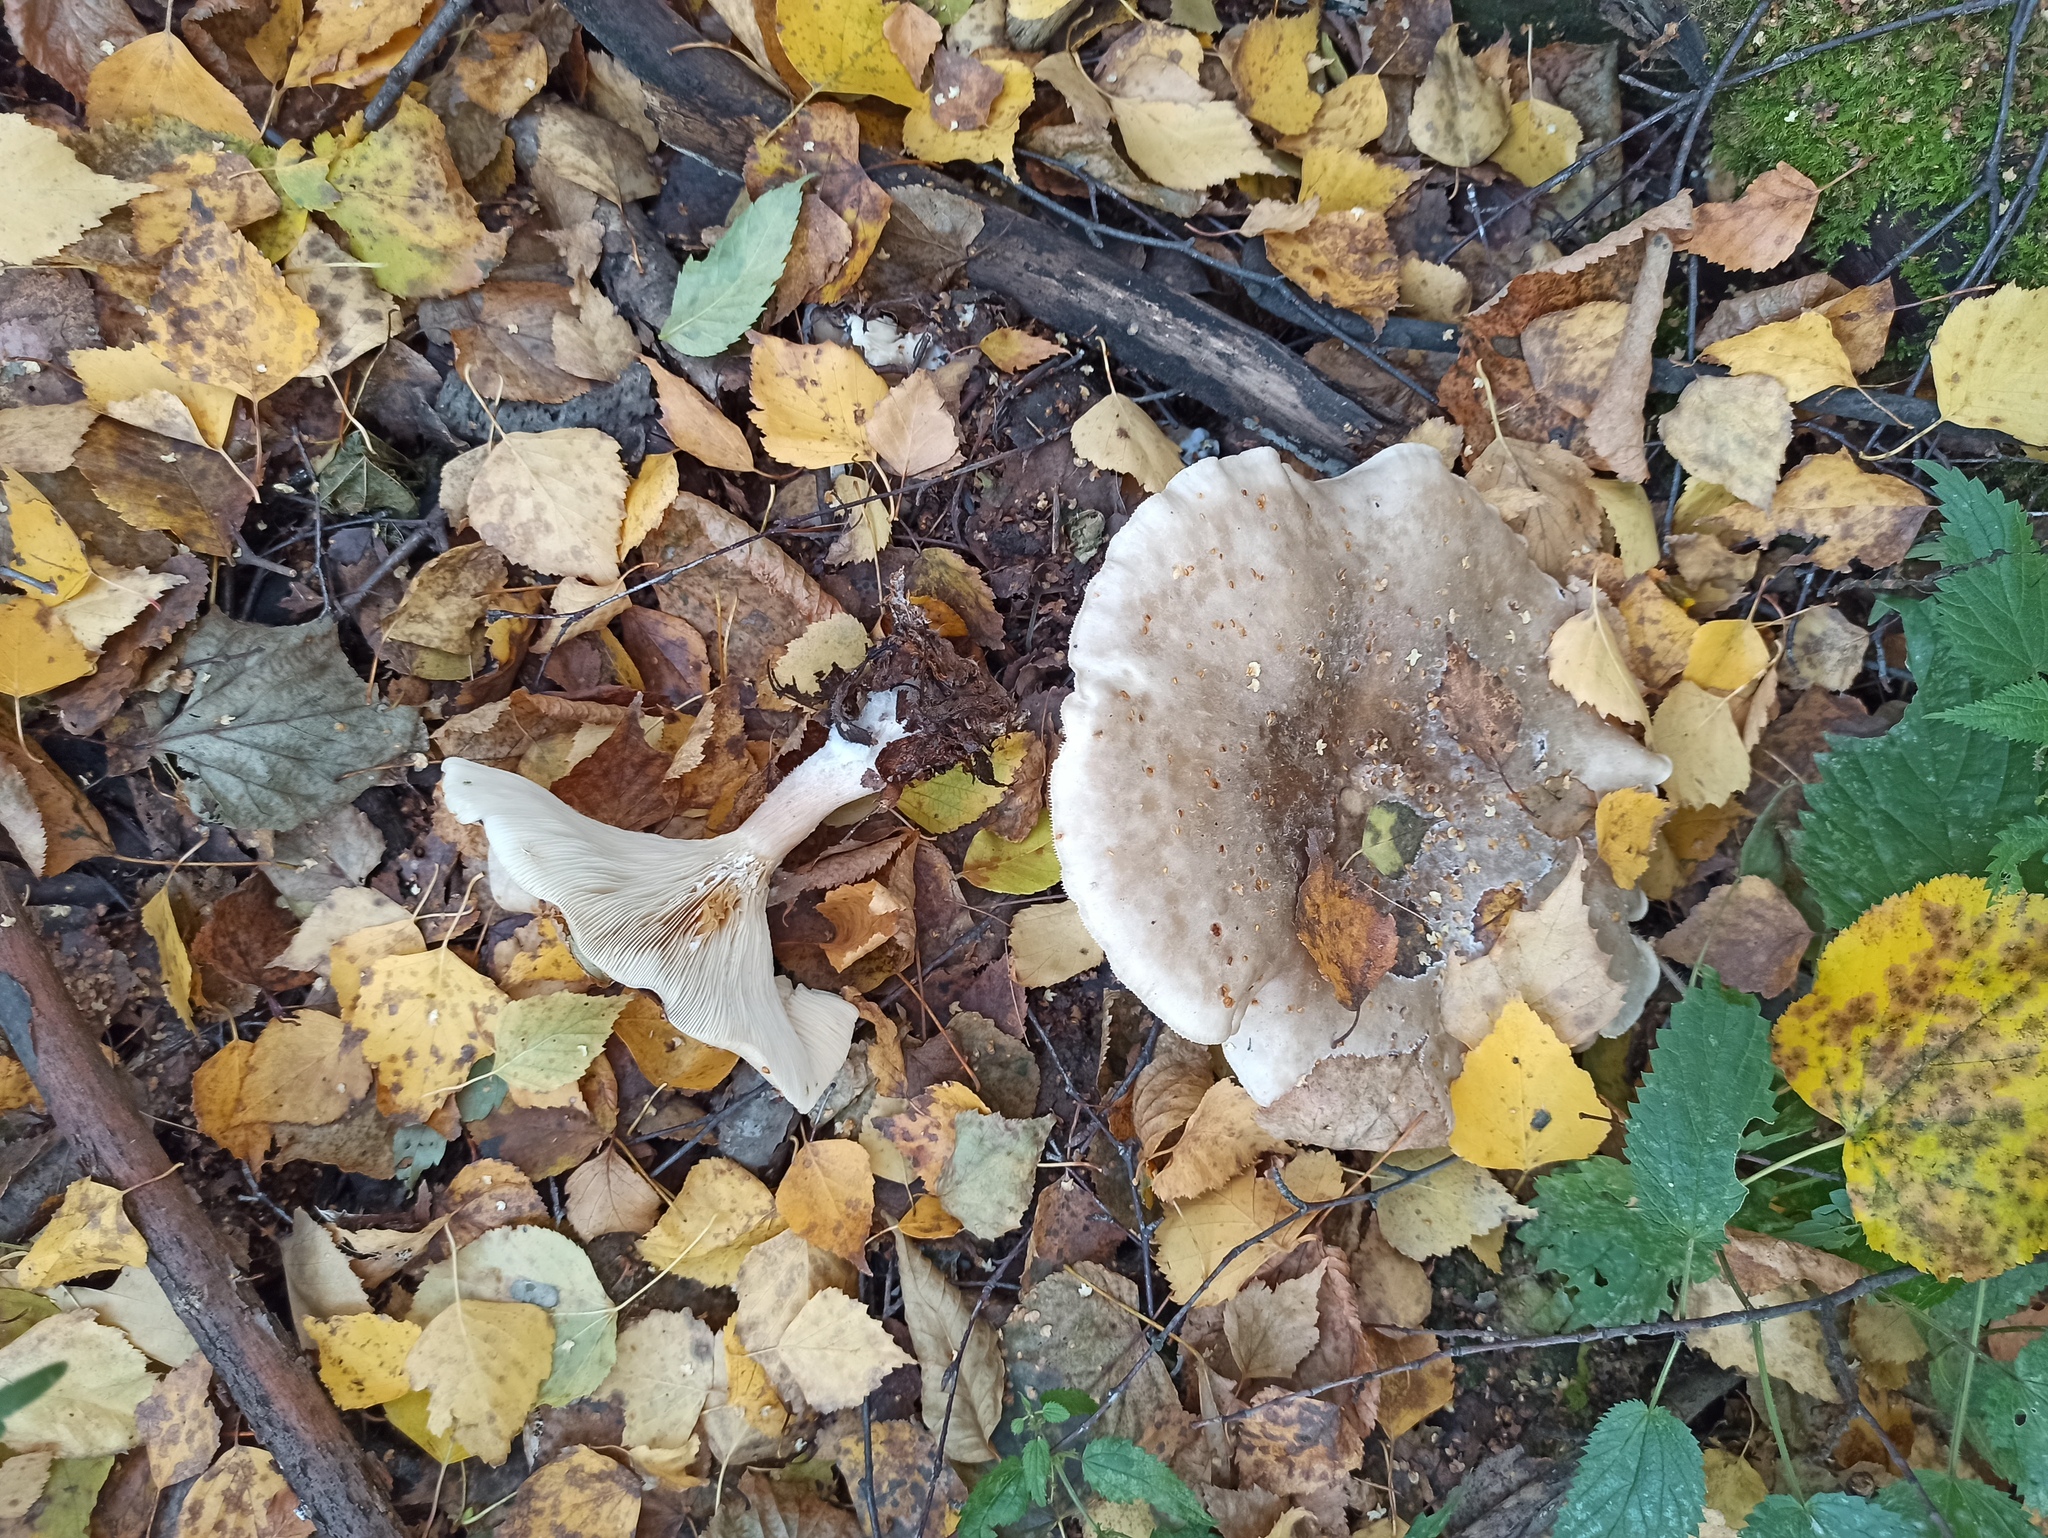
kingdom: Fungi
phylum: Basidiomycota
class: Agaricomycetes
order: Agaricales
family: Tricholomataceae
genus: Clitocybe
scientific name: Clitocybe nebularis
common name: Clouded agaric
